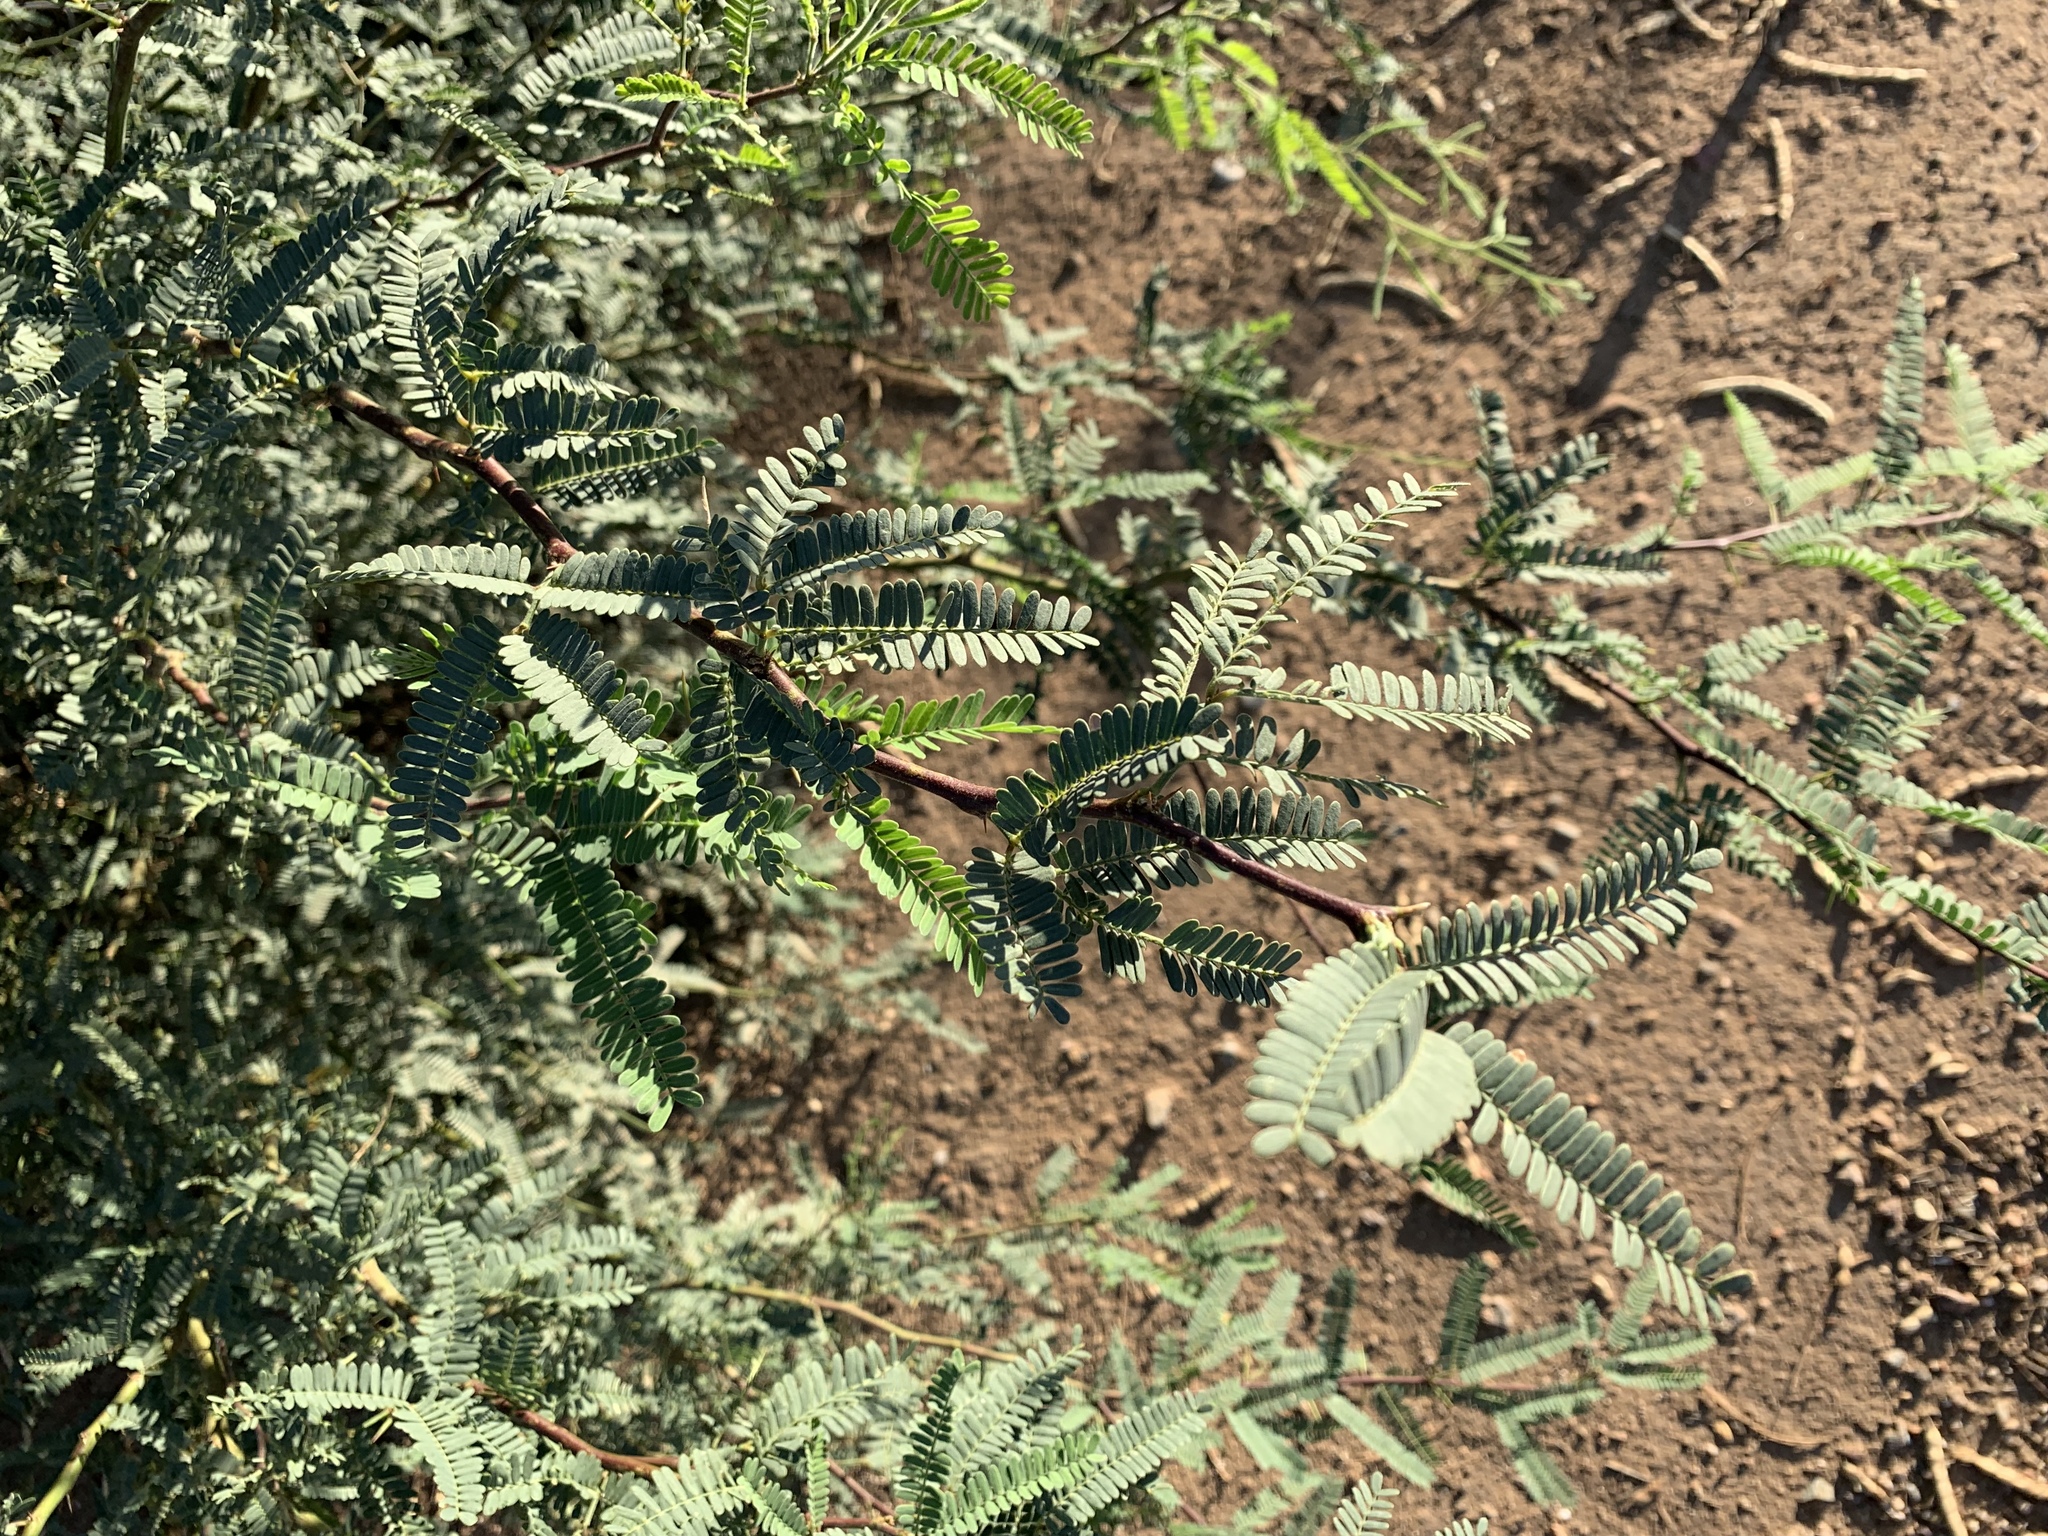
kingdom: Plantae
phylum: Tracheophyta
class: Magnoliopsida
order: Fabales
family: Fabaceae
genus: Prosopis
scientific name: Prosopis velutina
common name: Velvet mesquite
